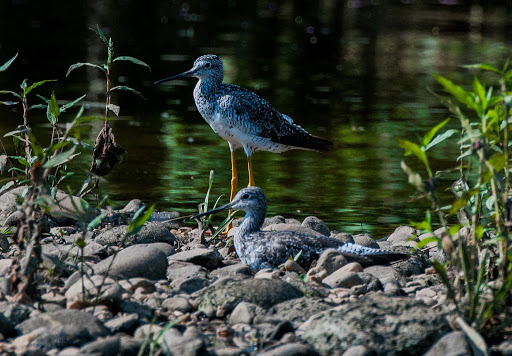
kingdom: Animalia
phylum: Chordata
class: Aves
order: Charadriiformes
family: Scolopacidae
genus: Tringa
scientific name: Tringa melanoleuca
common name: Greater yellowlegs
